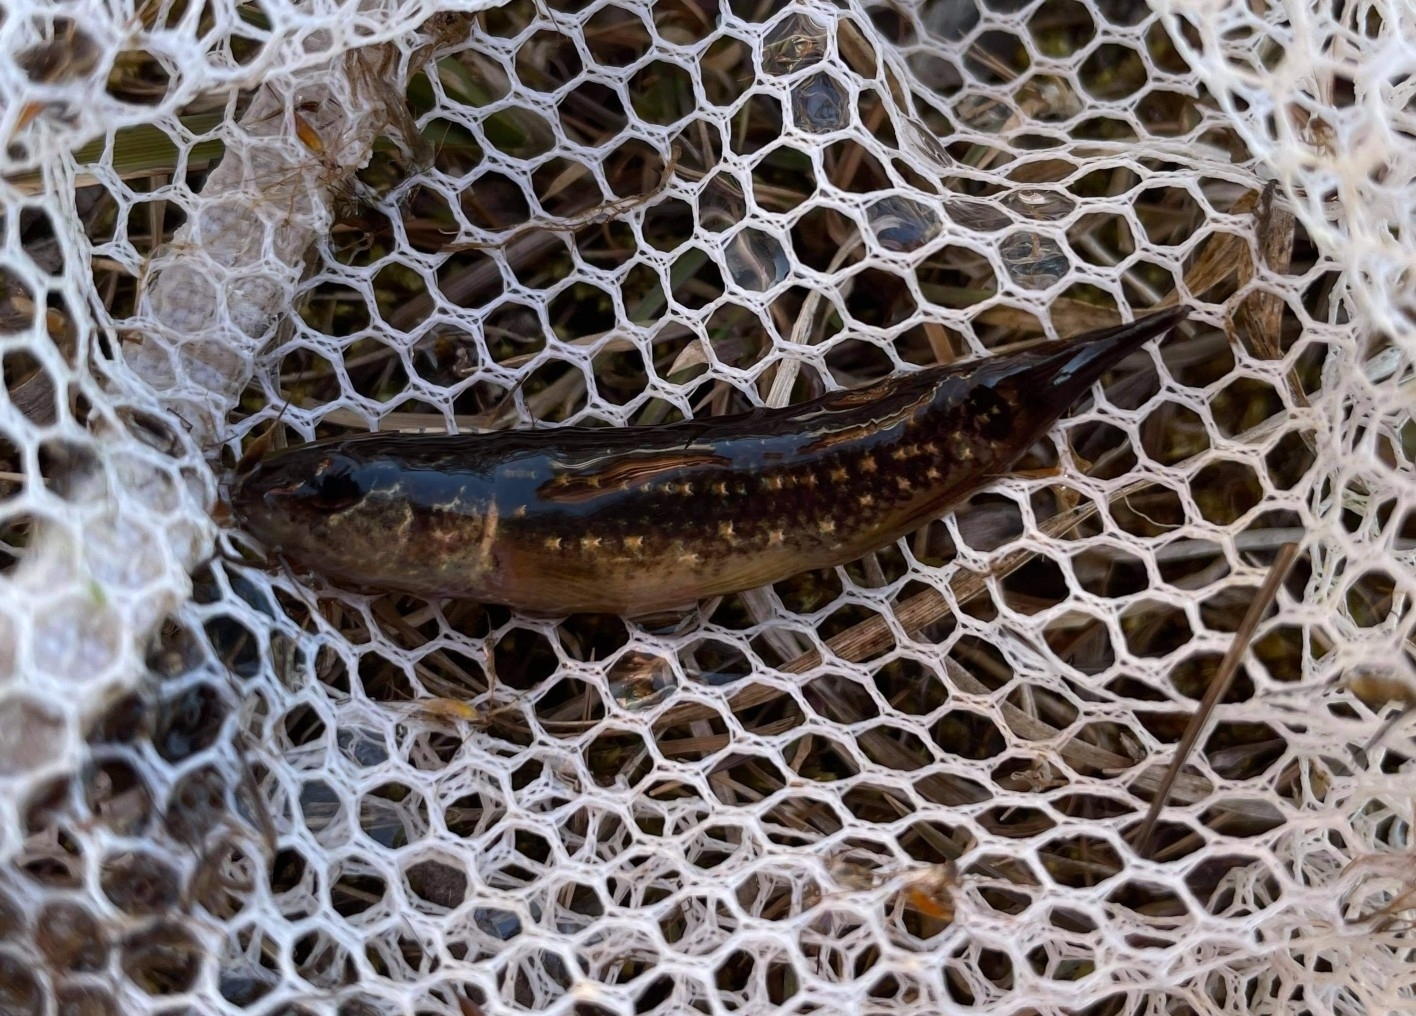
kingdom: Animalia
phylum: Chordata
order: Esociformes
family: Umbridae
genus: Umbra
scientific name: Umbra pygmaea
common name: Eastern mudminnow
